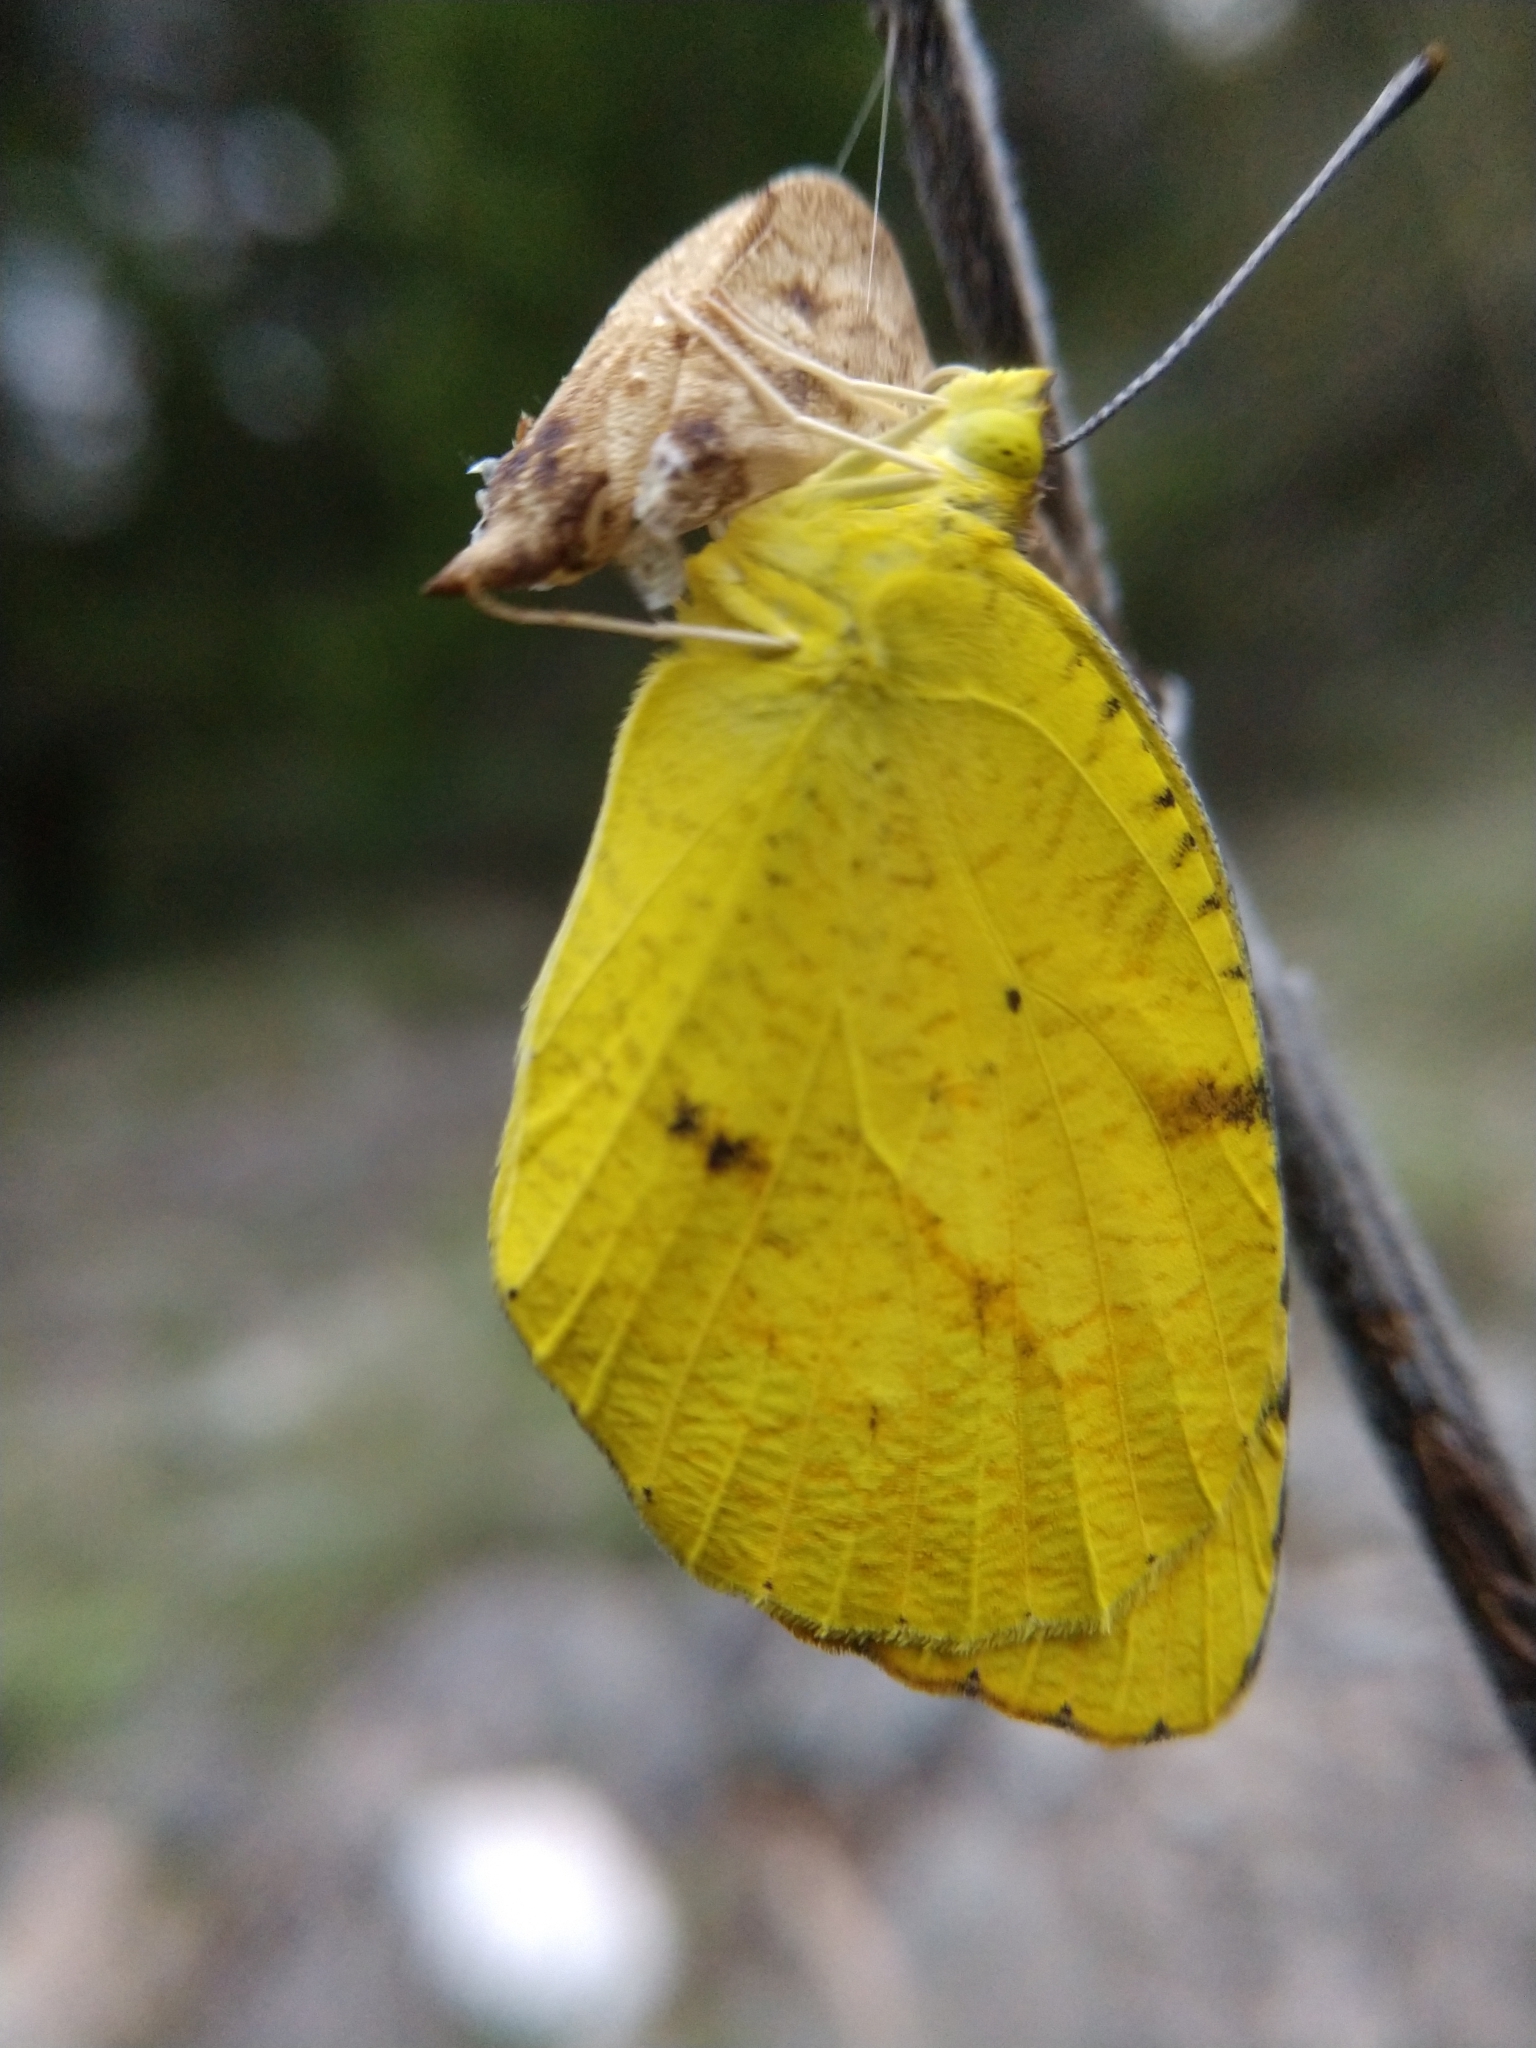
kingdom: Animalia
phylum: Arthropoda
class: Insecta
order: Lepidoptera
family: Pieridae
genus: Abaeis
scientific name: Abaeis nicippe
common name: Sleepy orange
